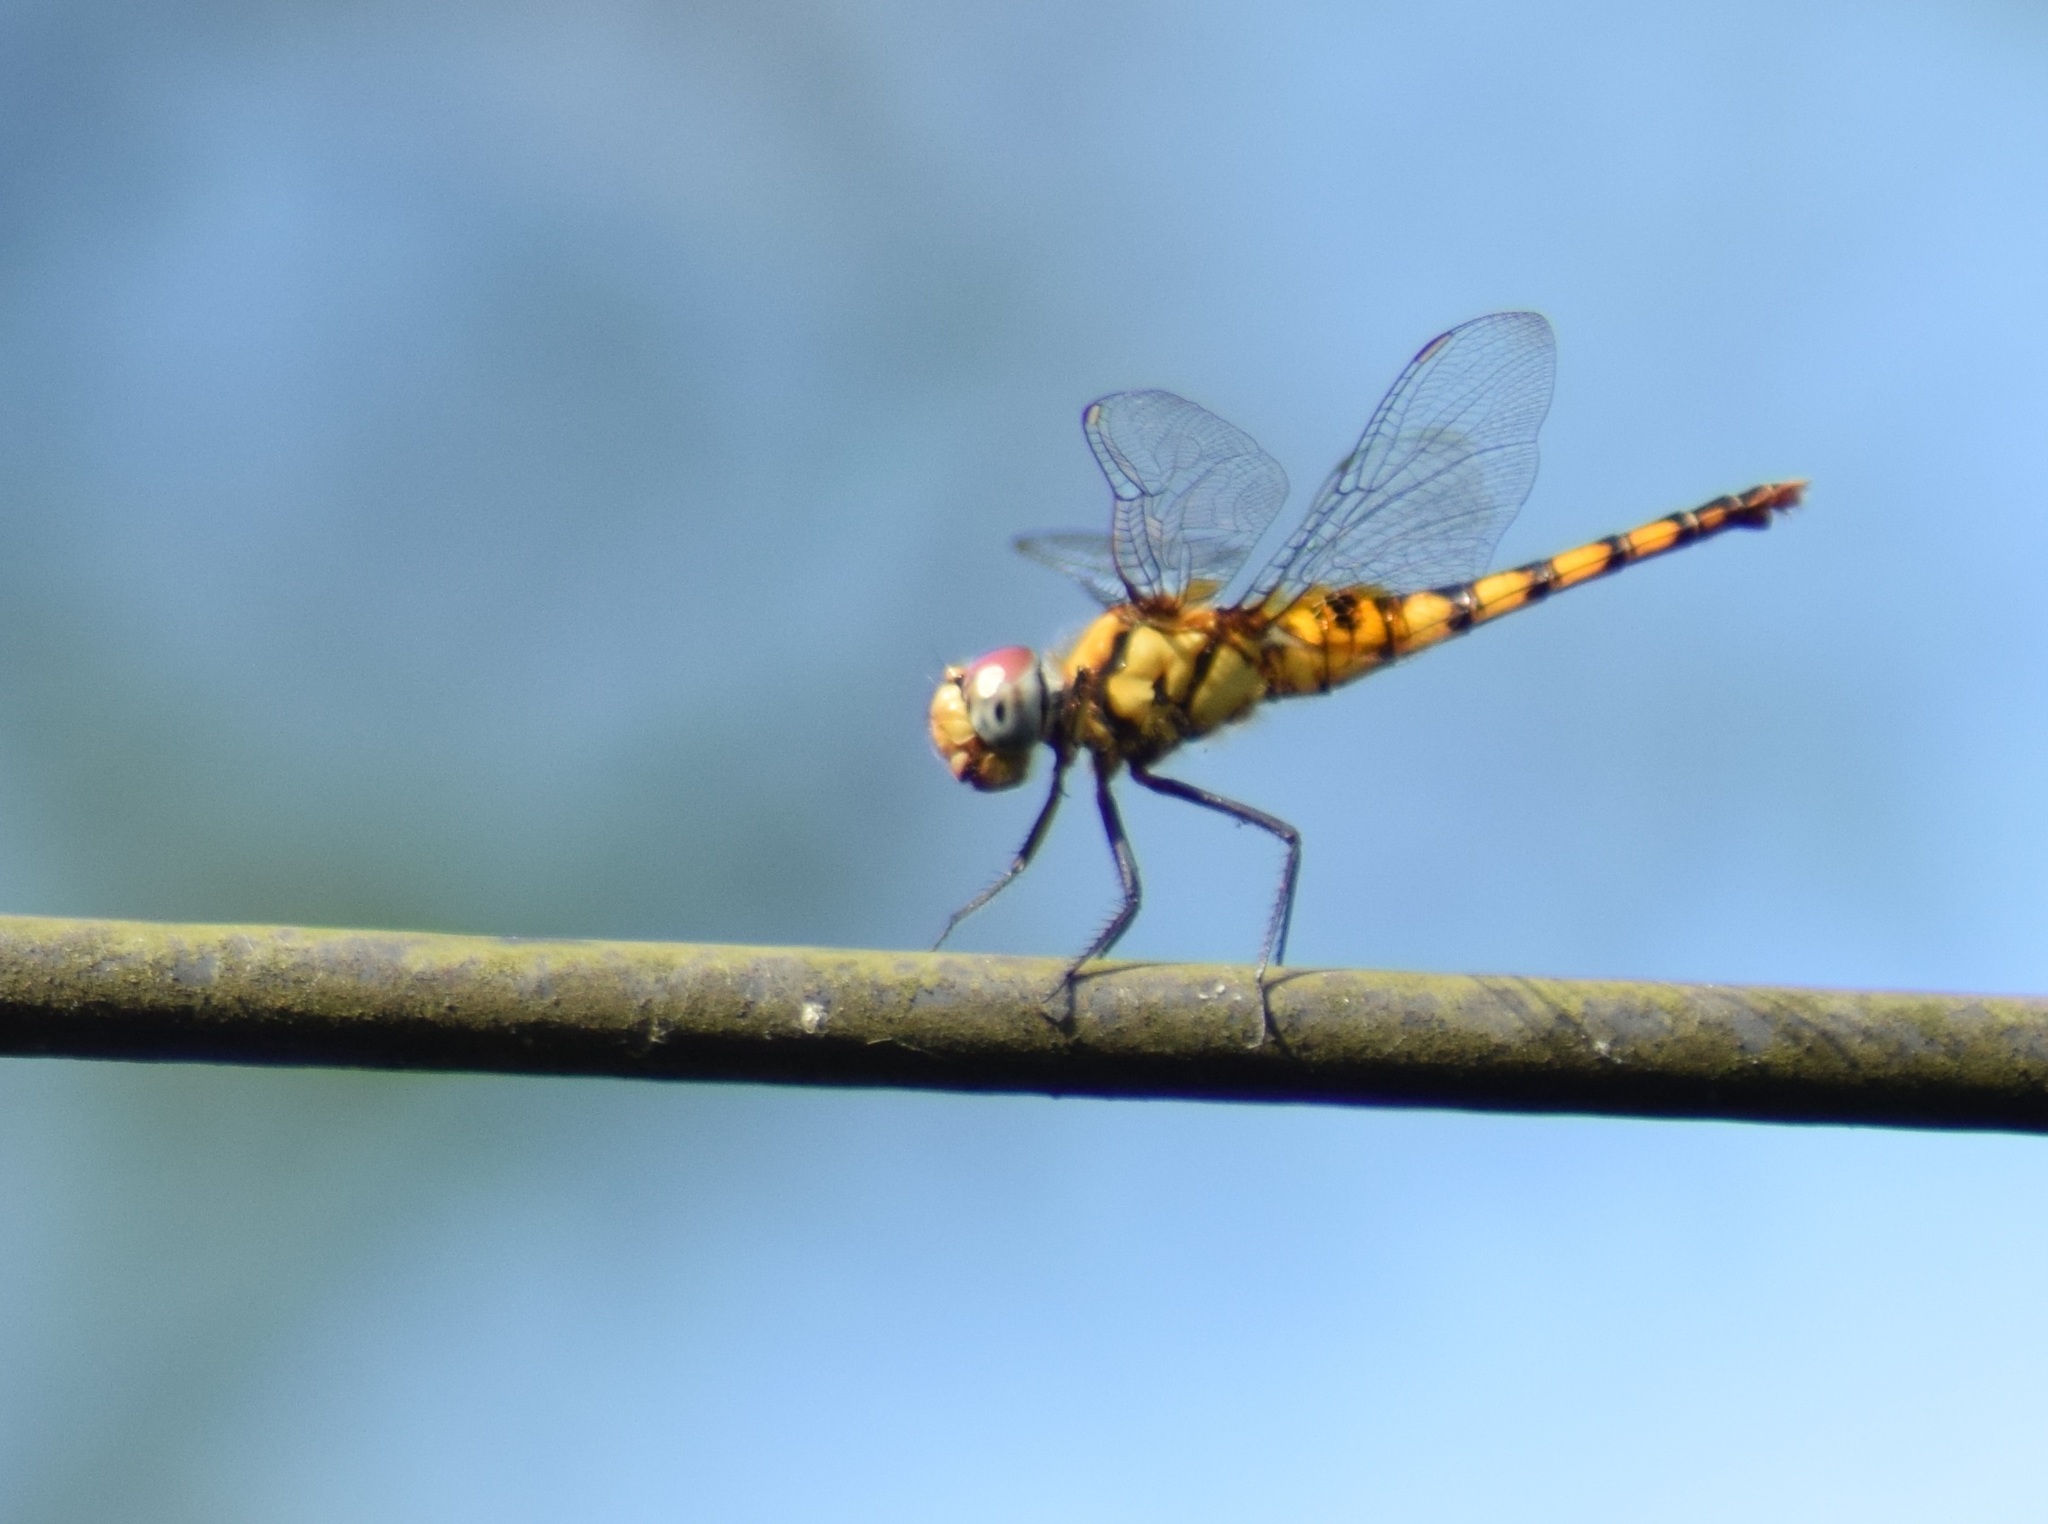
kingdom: Animalia
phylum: Arthropoda
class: Insecta
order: Odonata
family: Libellulidae
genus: Urothemis
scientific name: Urothemis signata
